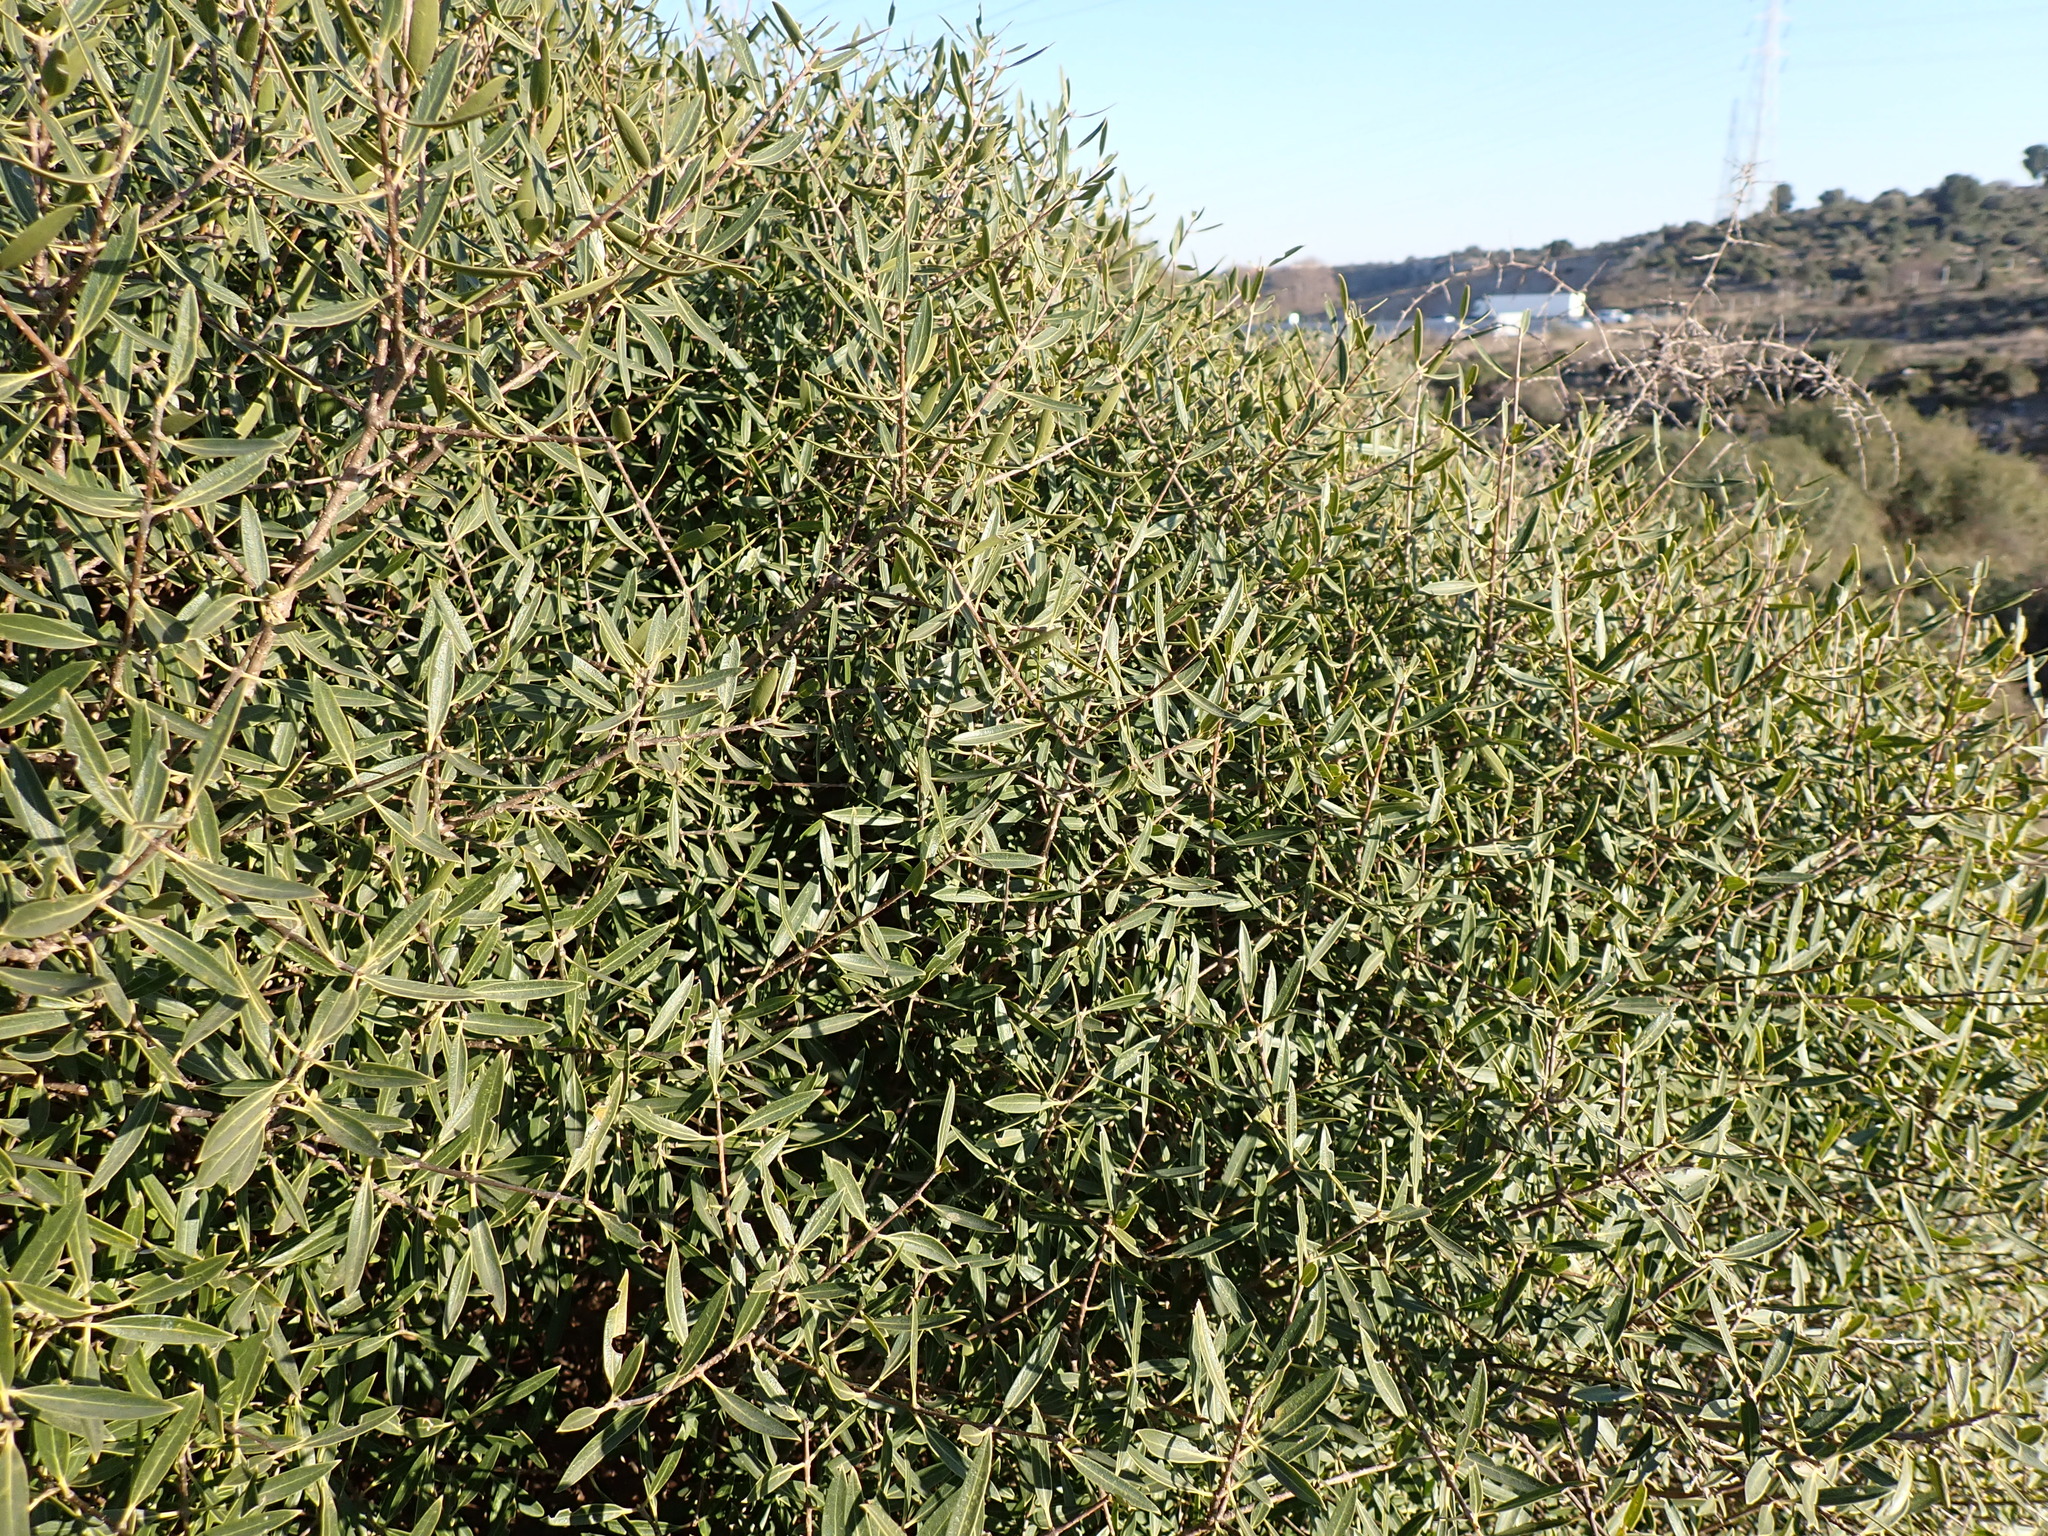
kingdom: Plantae
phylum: Tracheophyta
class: Magnoliopsida
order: Lamiales
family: Oleaceae
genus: Phillyrea
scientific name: Phillyrea angustifolia
